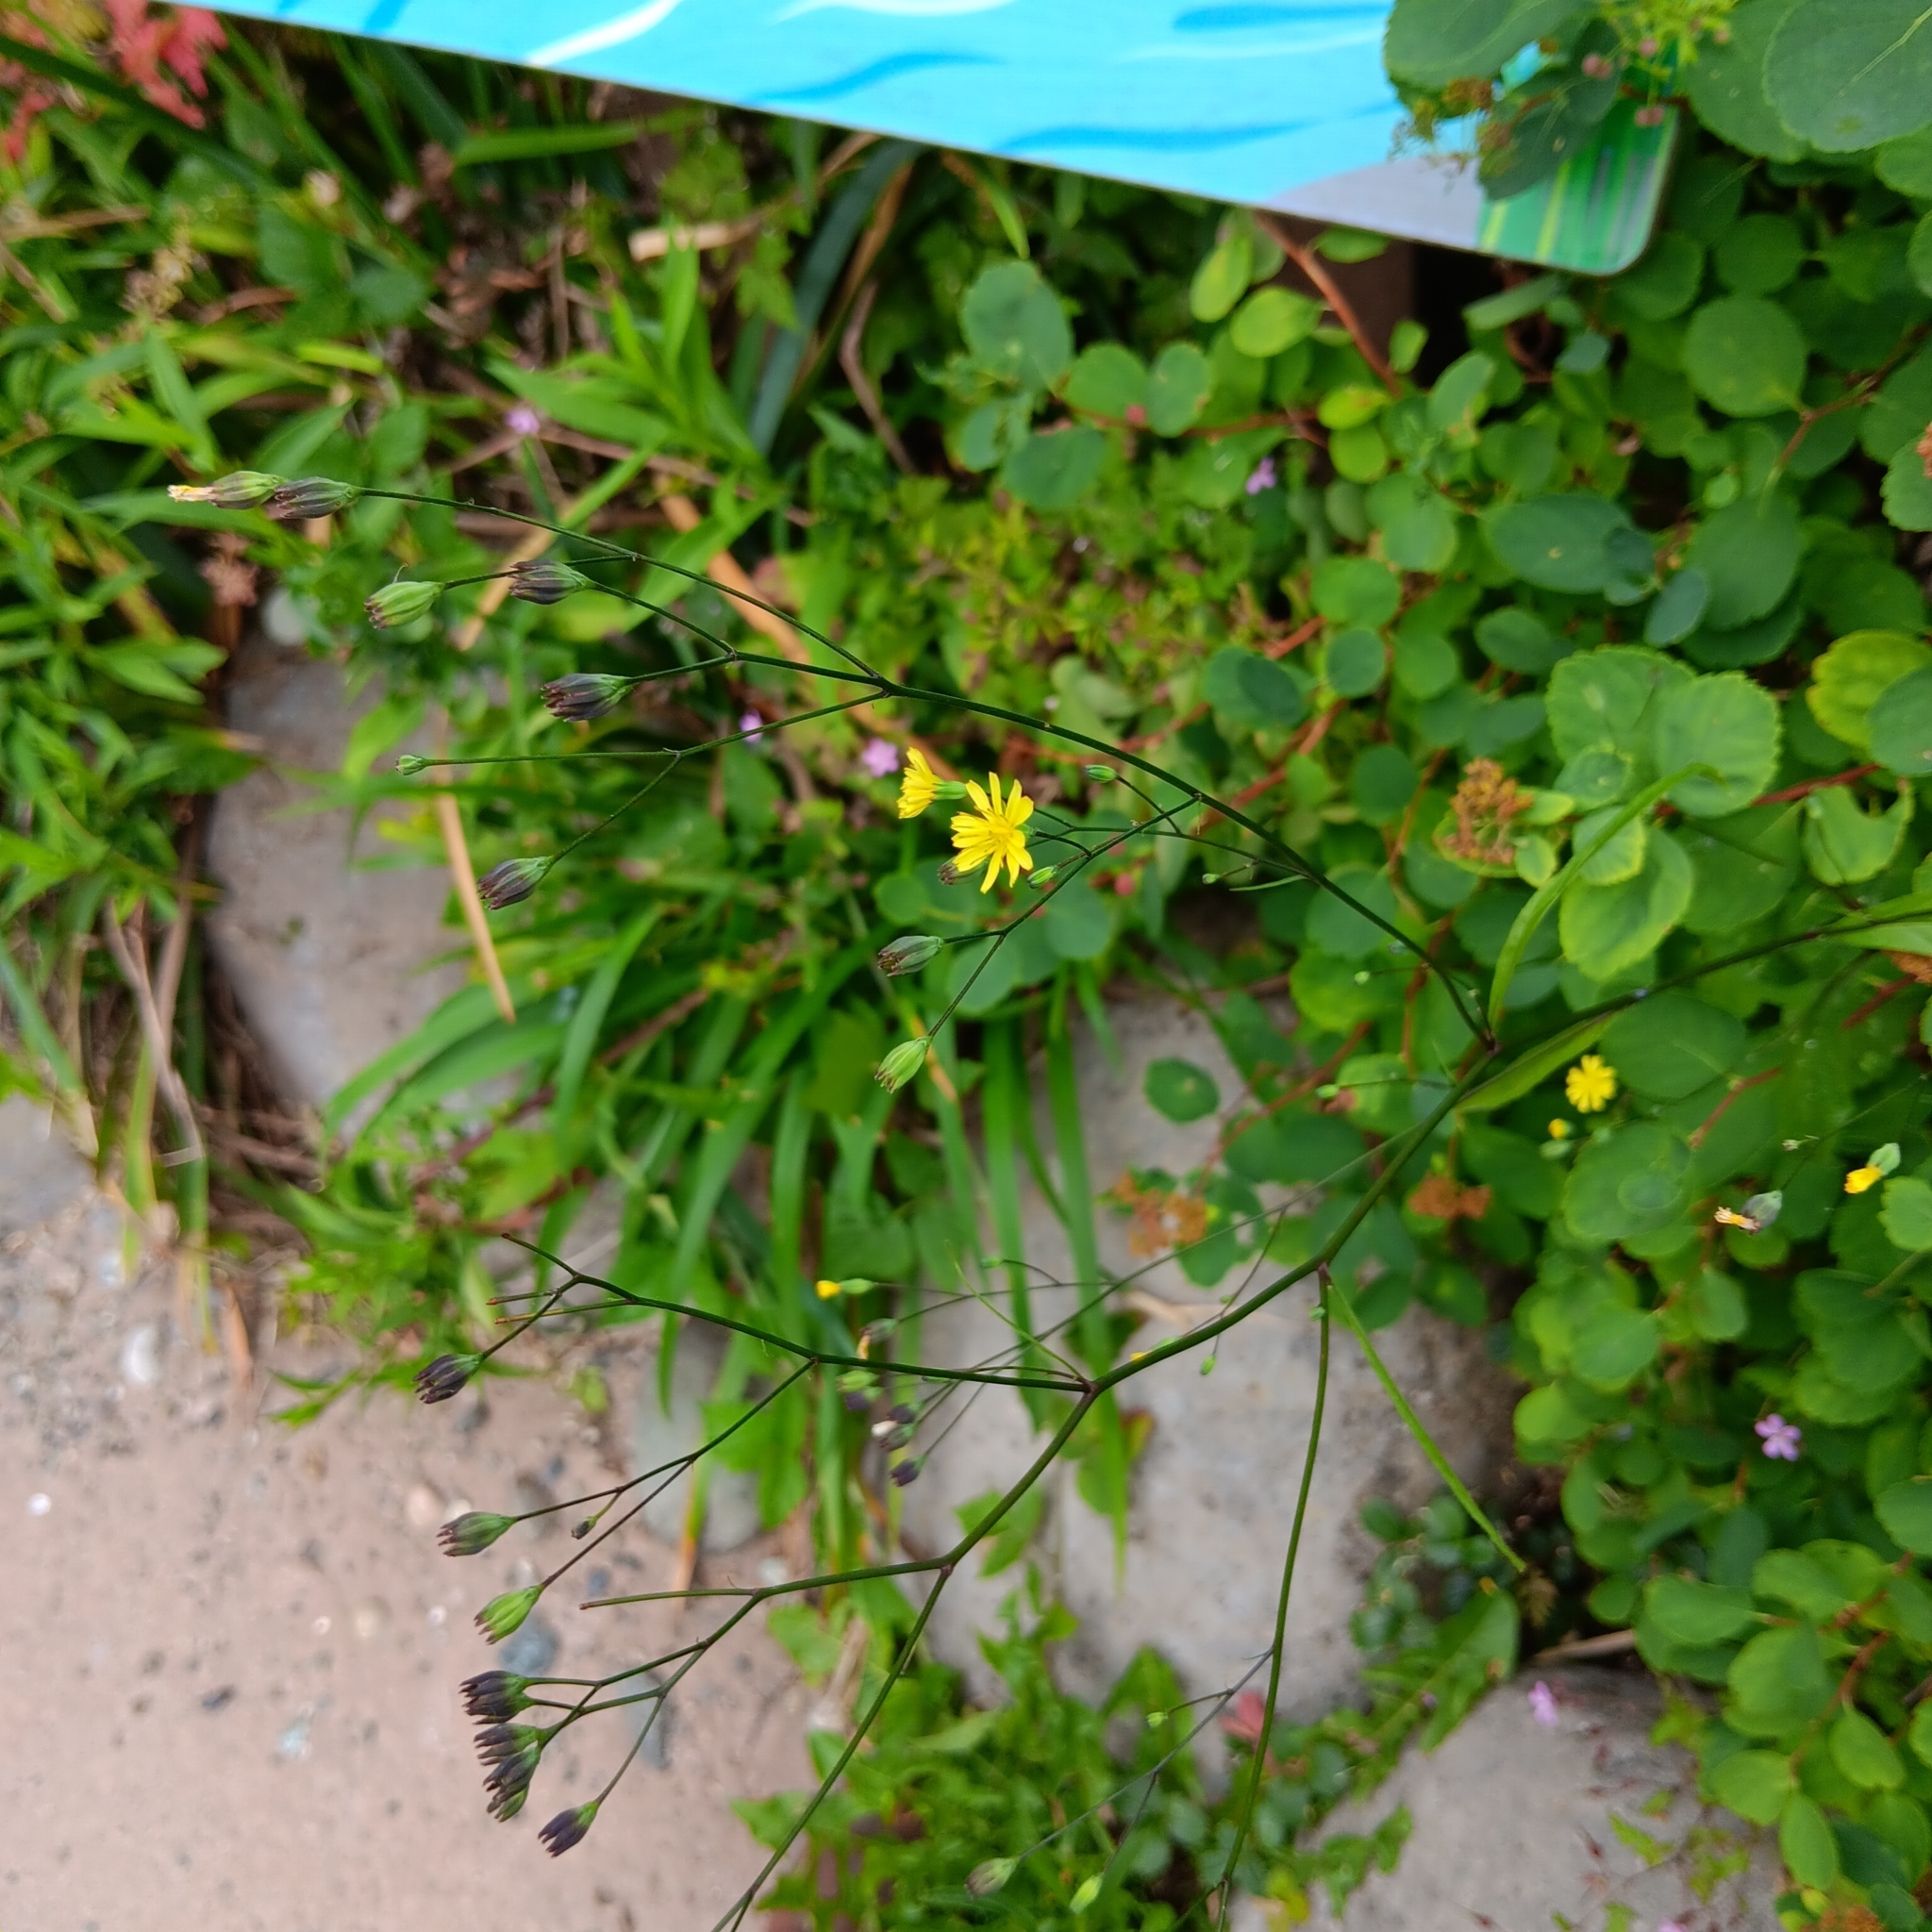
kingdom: Plantae
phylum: Tracheophyta
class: Magnoliopsida
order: Asterales
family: Asteraceae
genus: Lapsana
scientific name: Lapsana communis
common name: Nipplewort
